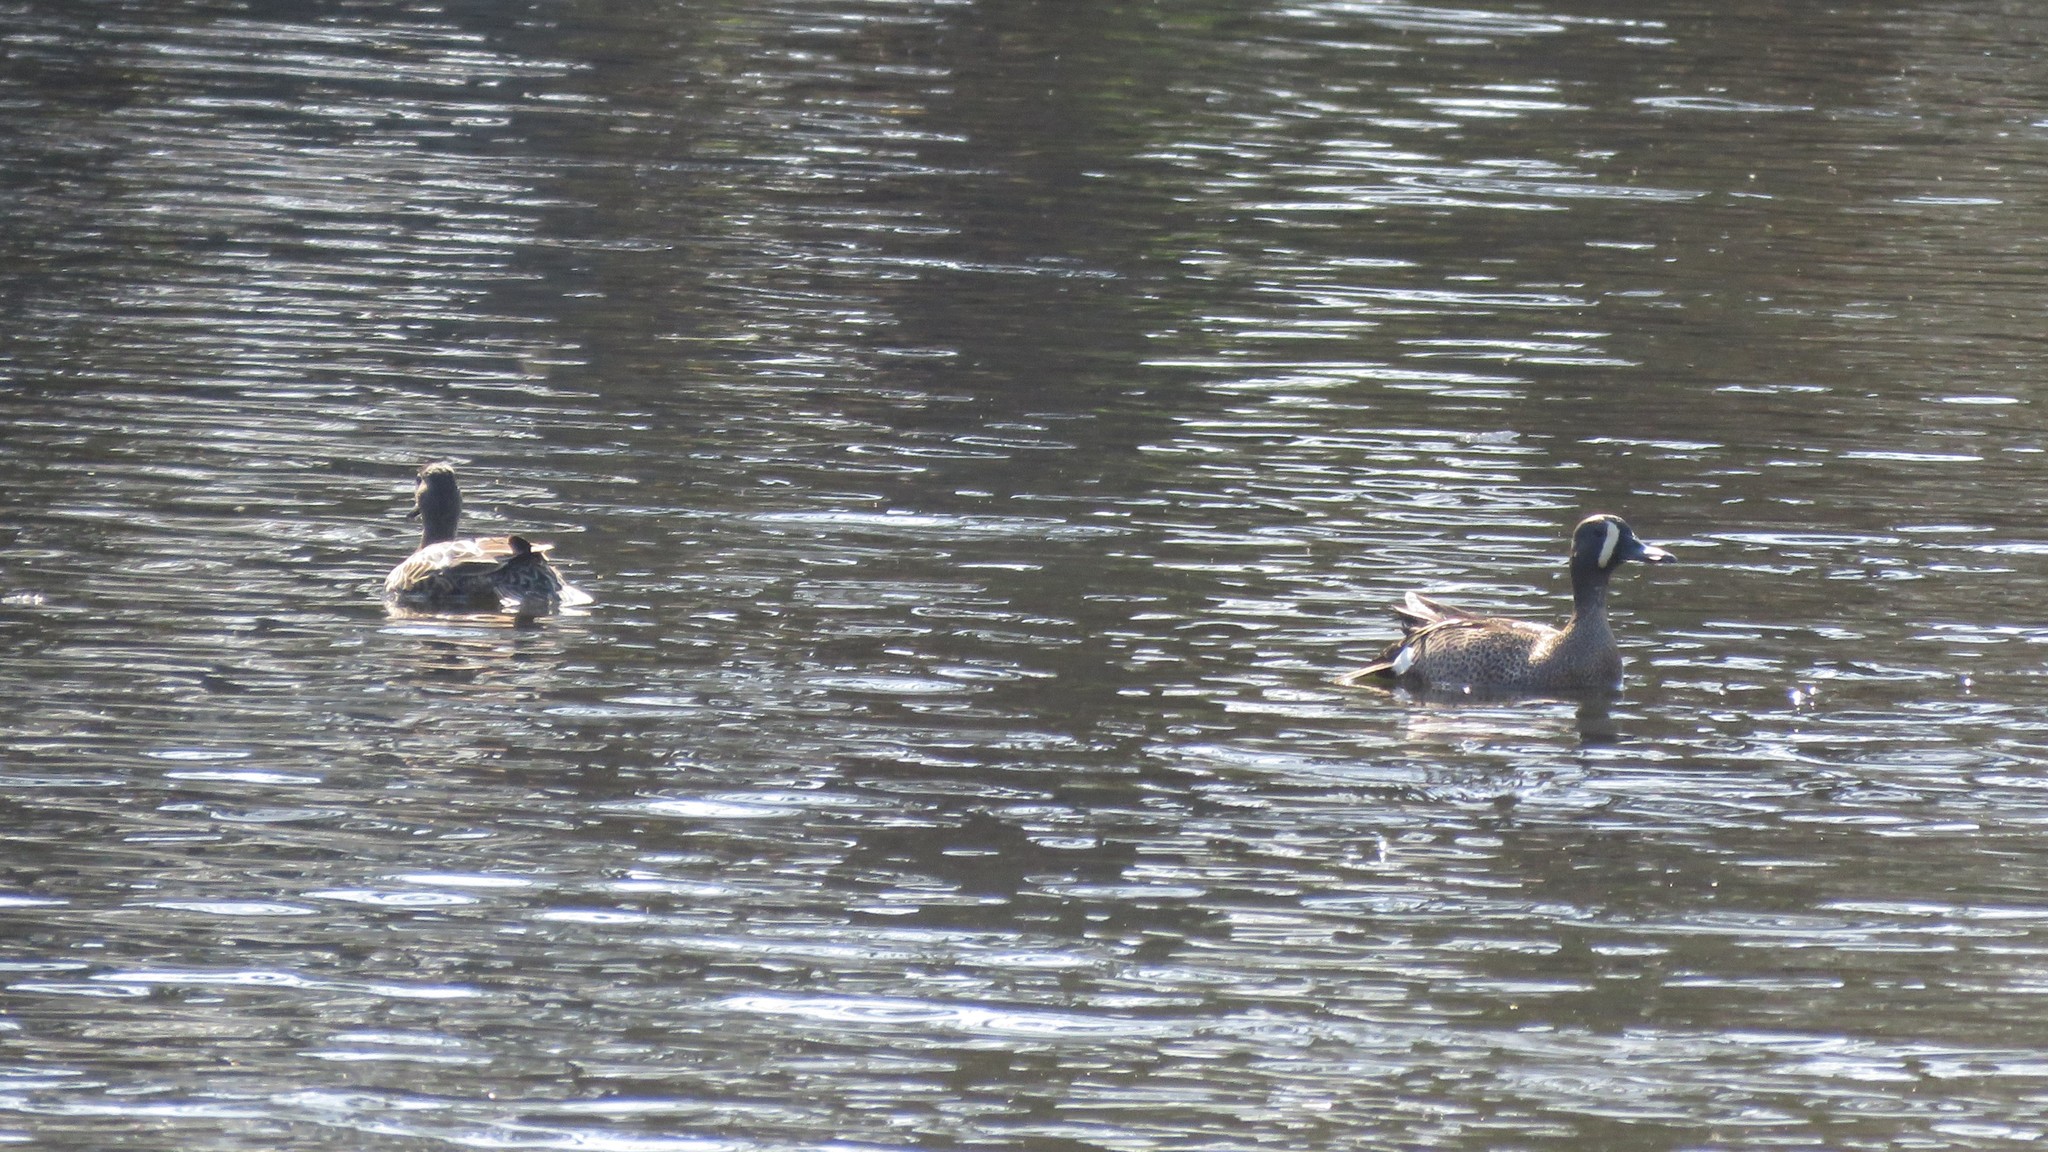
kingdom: Animalia
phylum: Chordata
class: Aves
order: Anseriformes
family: Anatidae
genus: Spatula
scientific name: Spatula discors
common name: Blue-winged teal
